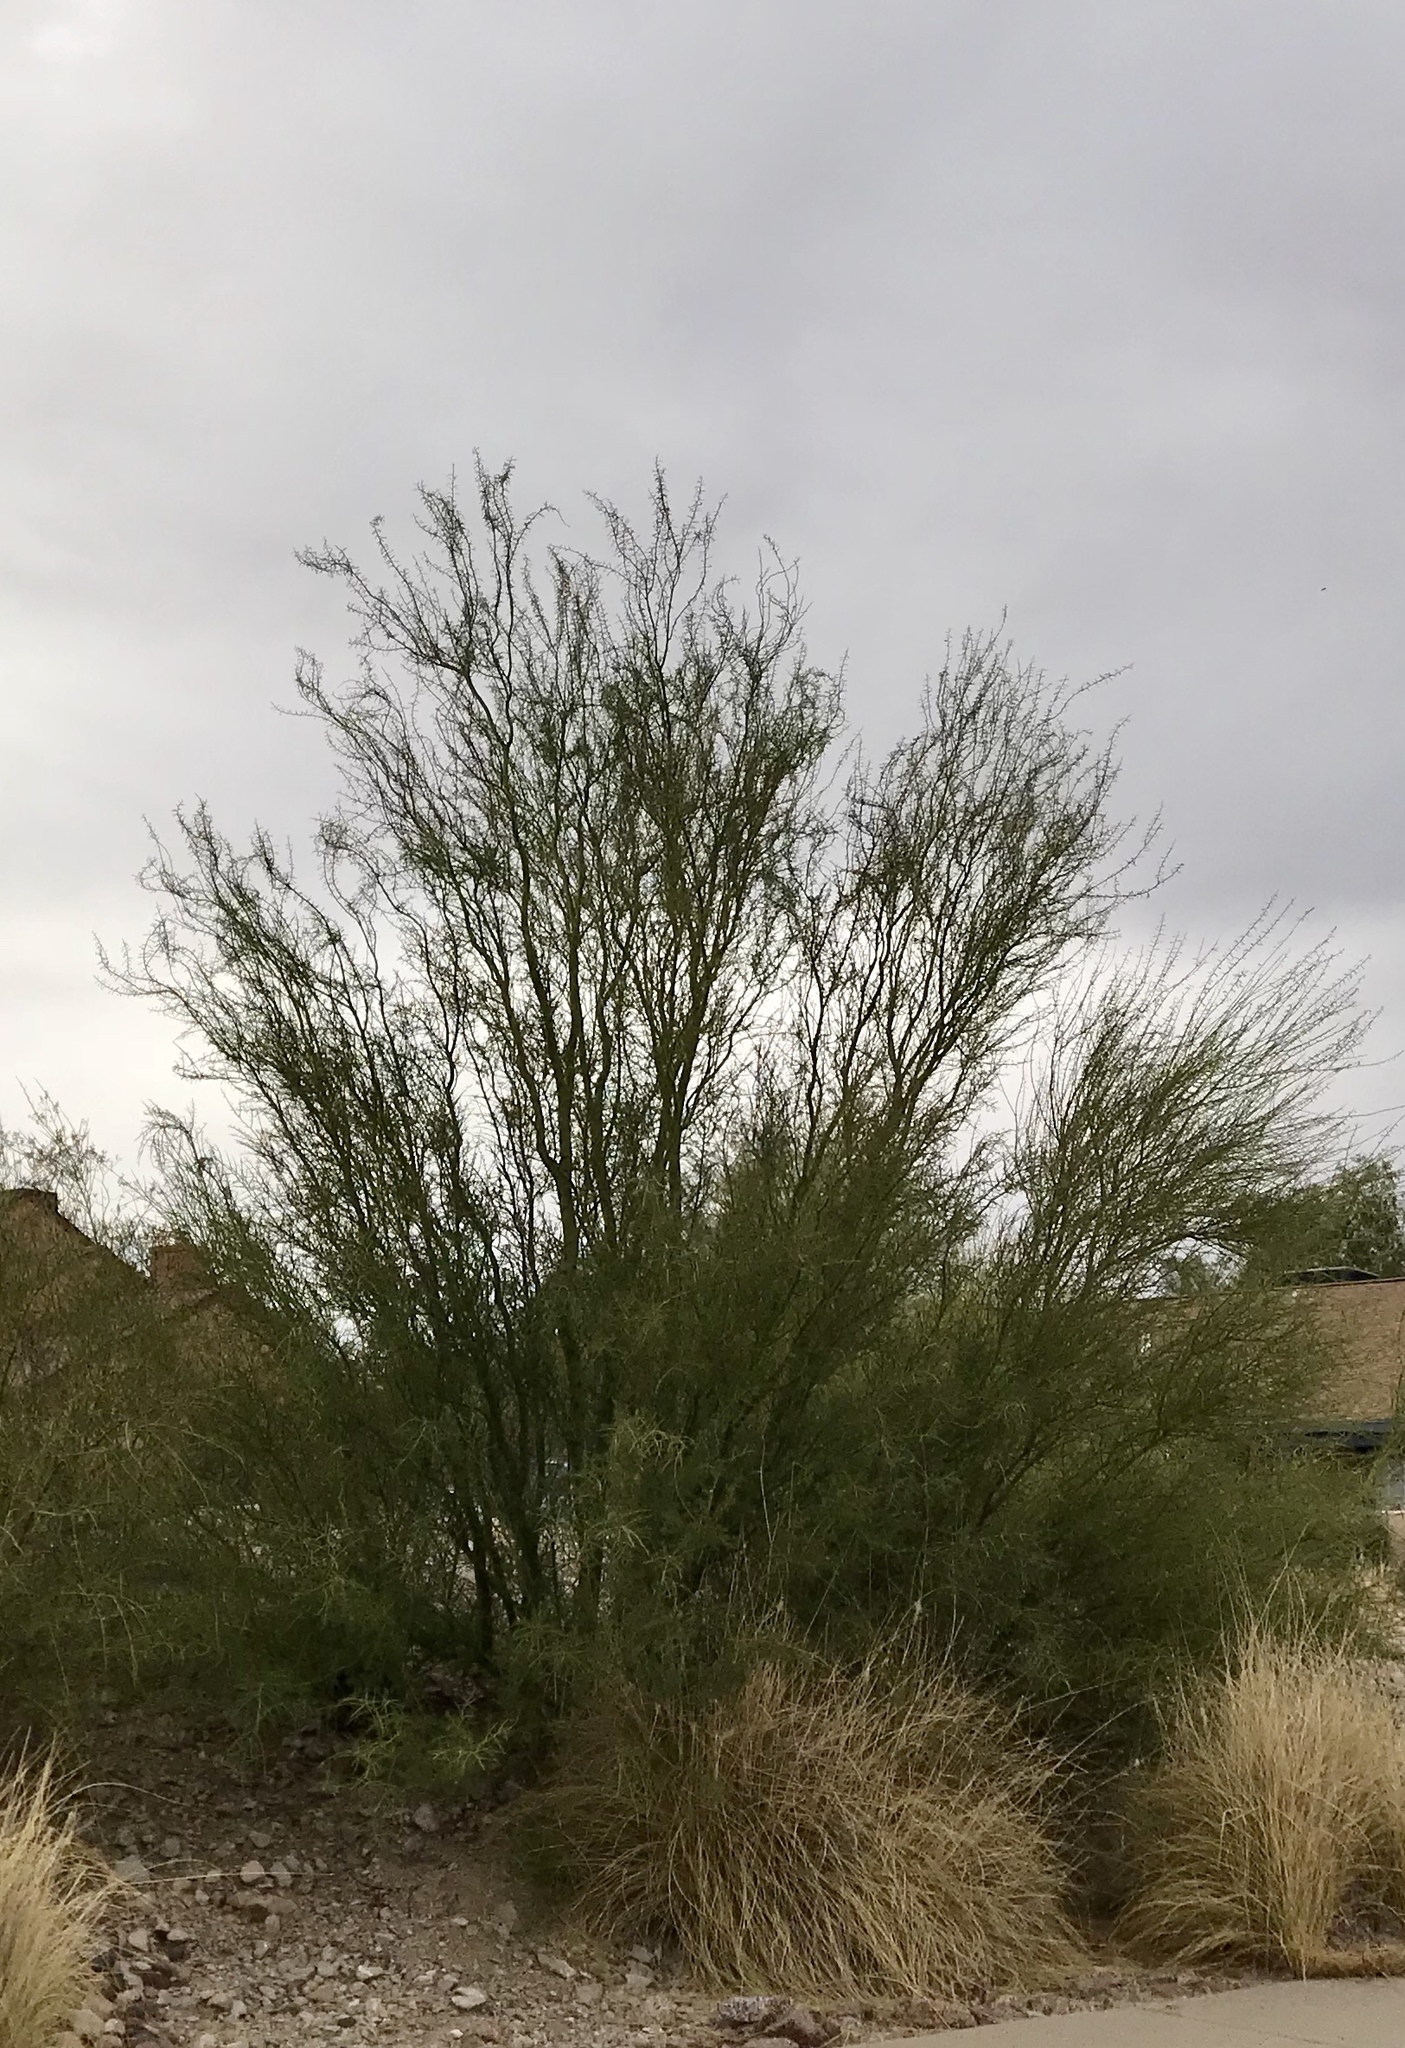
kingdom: Plantae
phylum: Tracheophyta
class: Magnoliopsida
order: Fabales
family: Fabaceae
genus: Parkinsonia
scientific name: Parkinsonia microphylla
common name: Yellow paloverde
